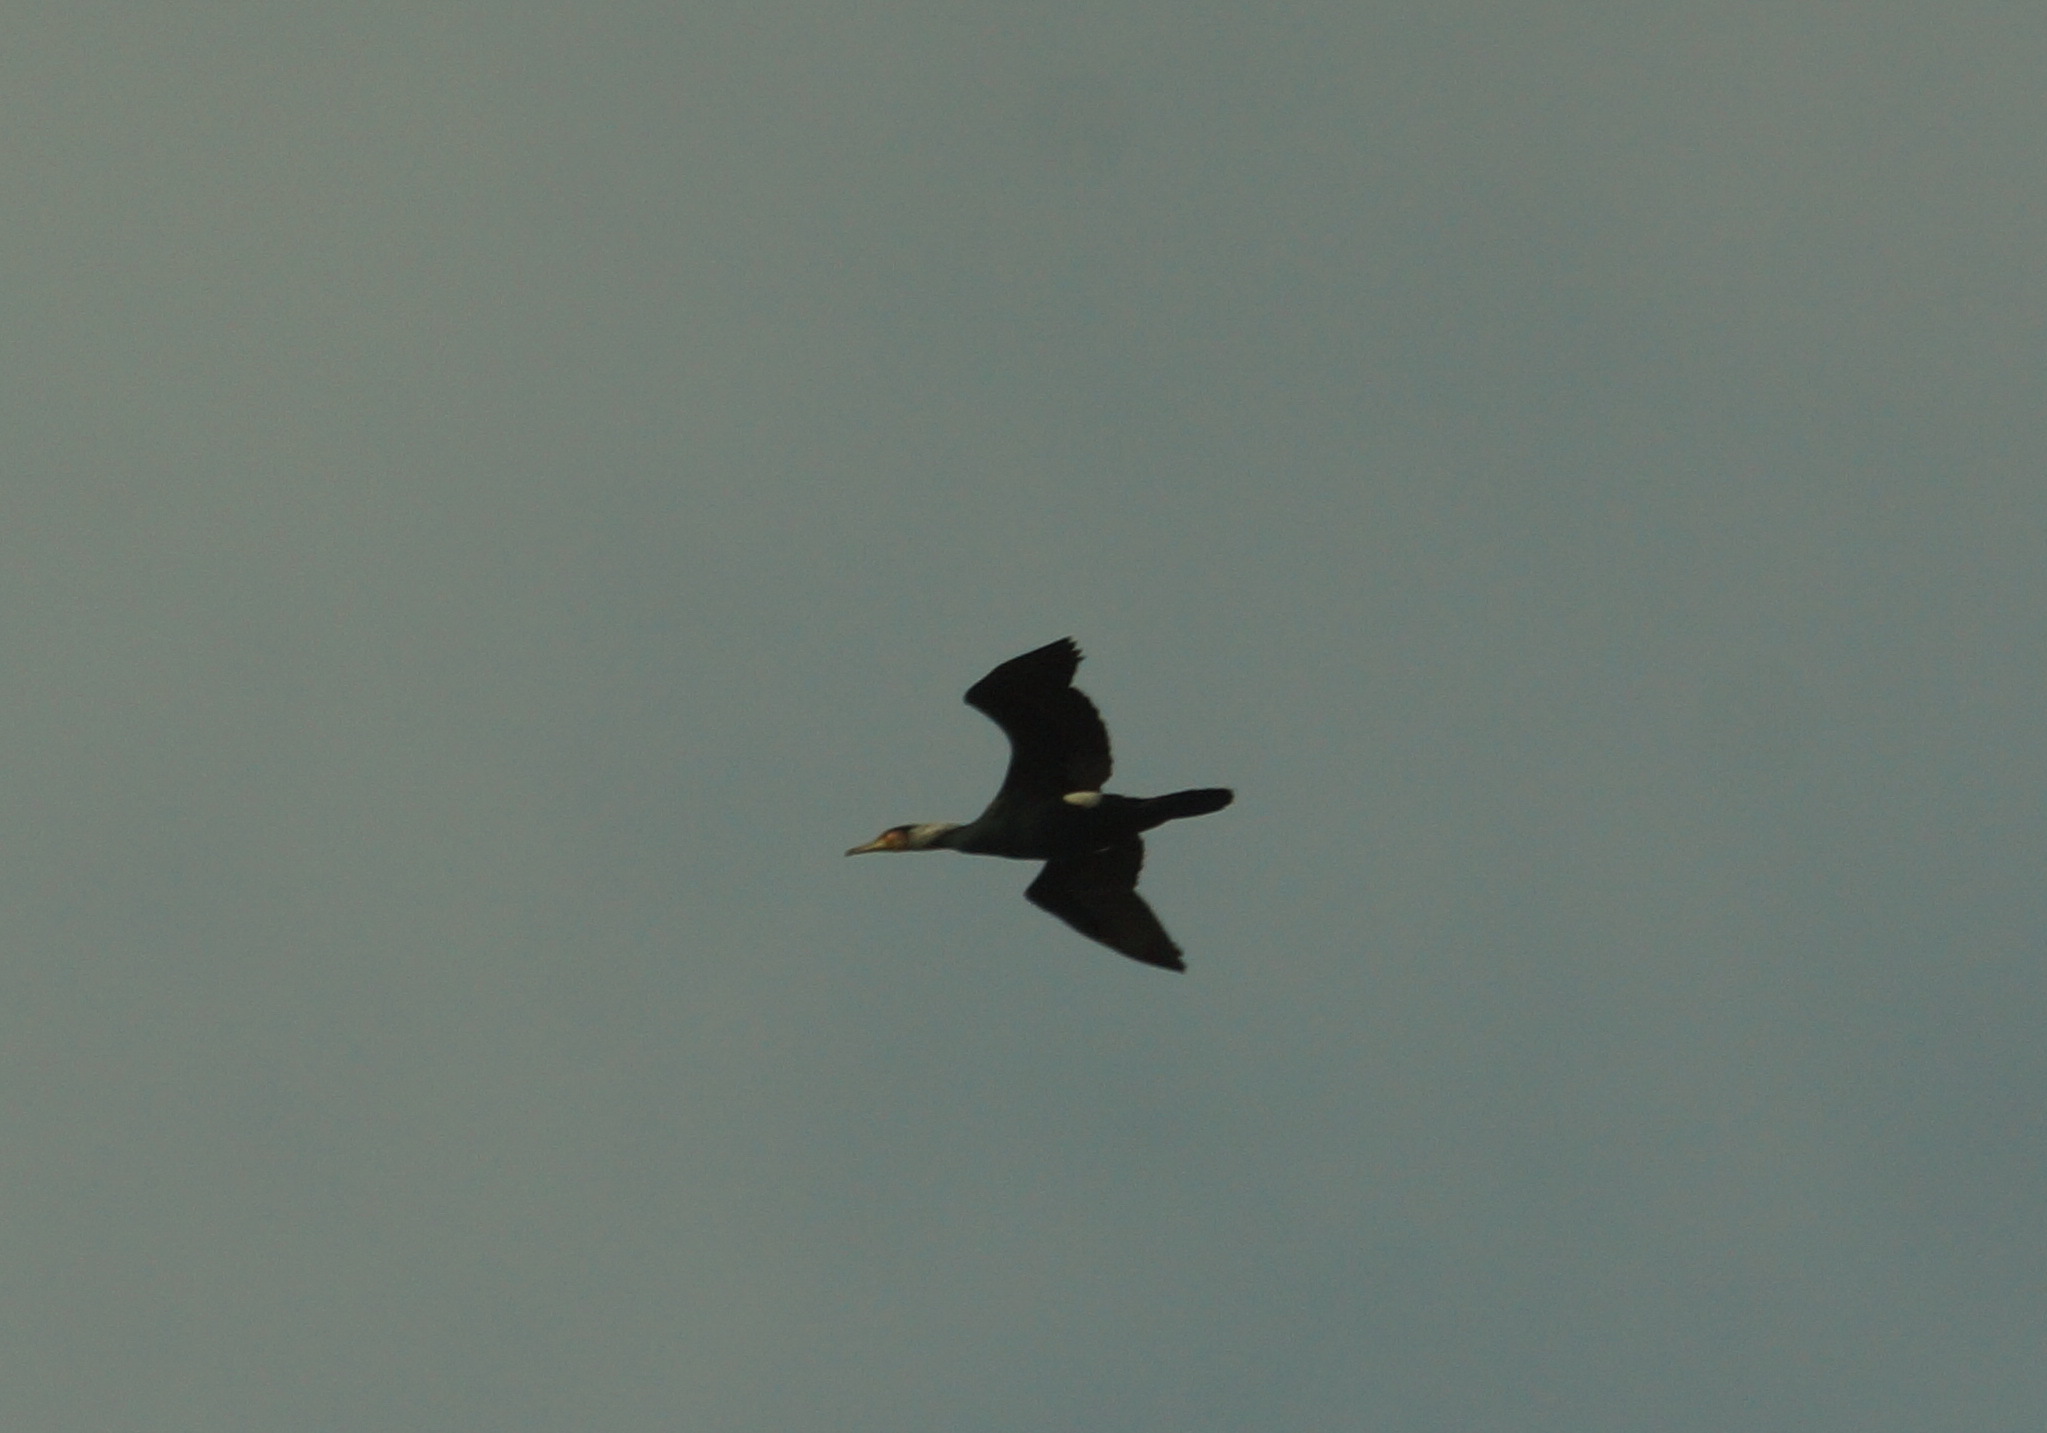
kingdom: Animalia
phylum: Chordata
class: Aves
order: Suliformes
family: Phalacrocoracidae
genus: Phalacrocorax
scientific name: Phalacrocorax carbo
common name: Great cormorant
